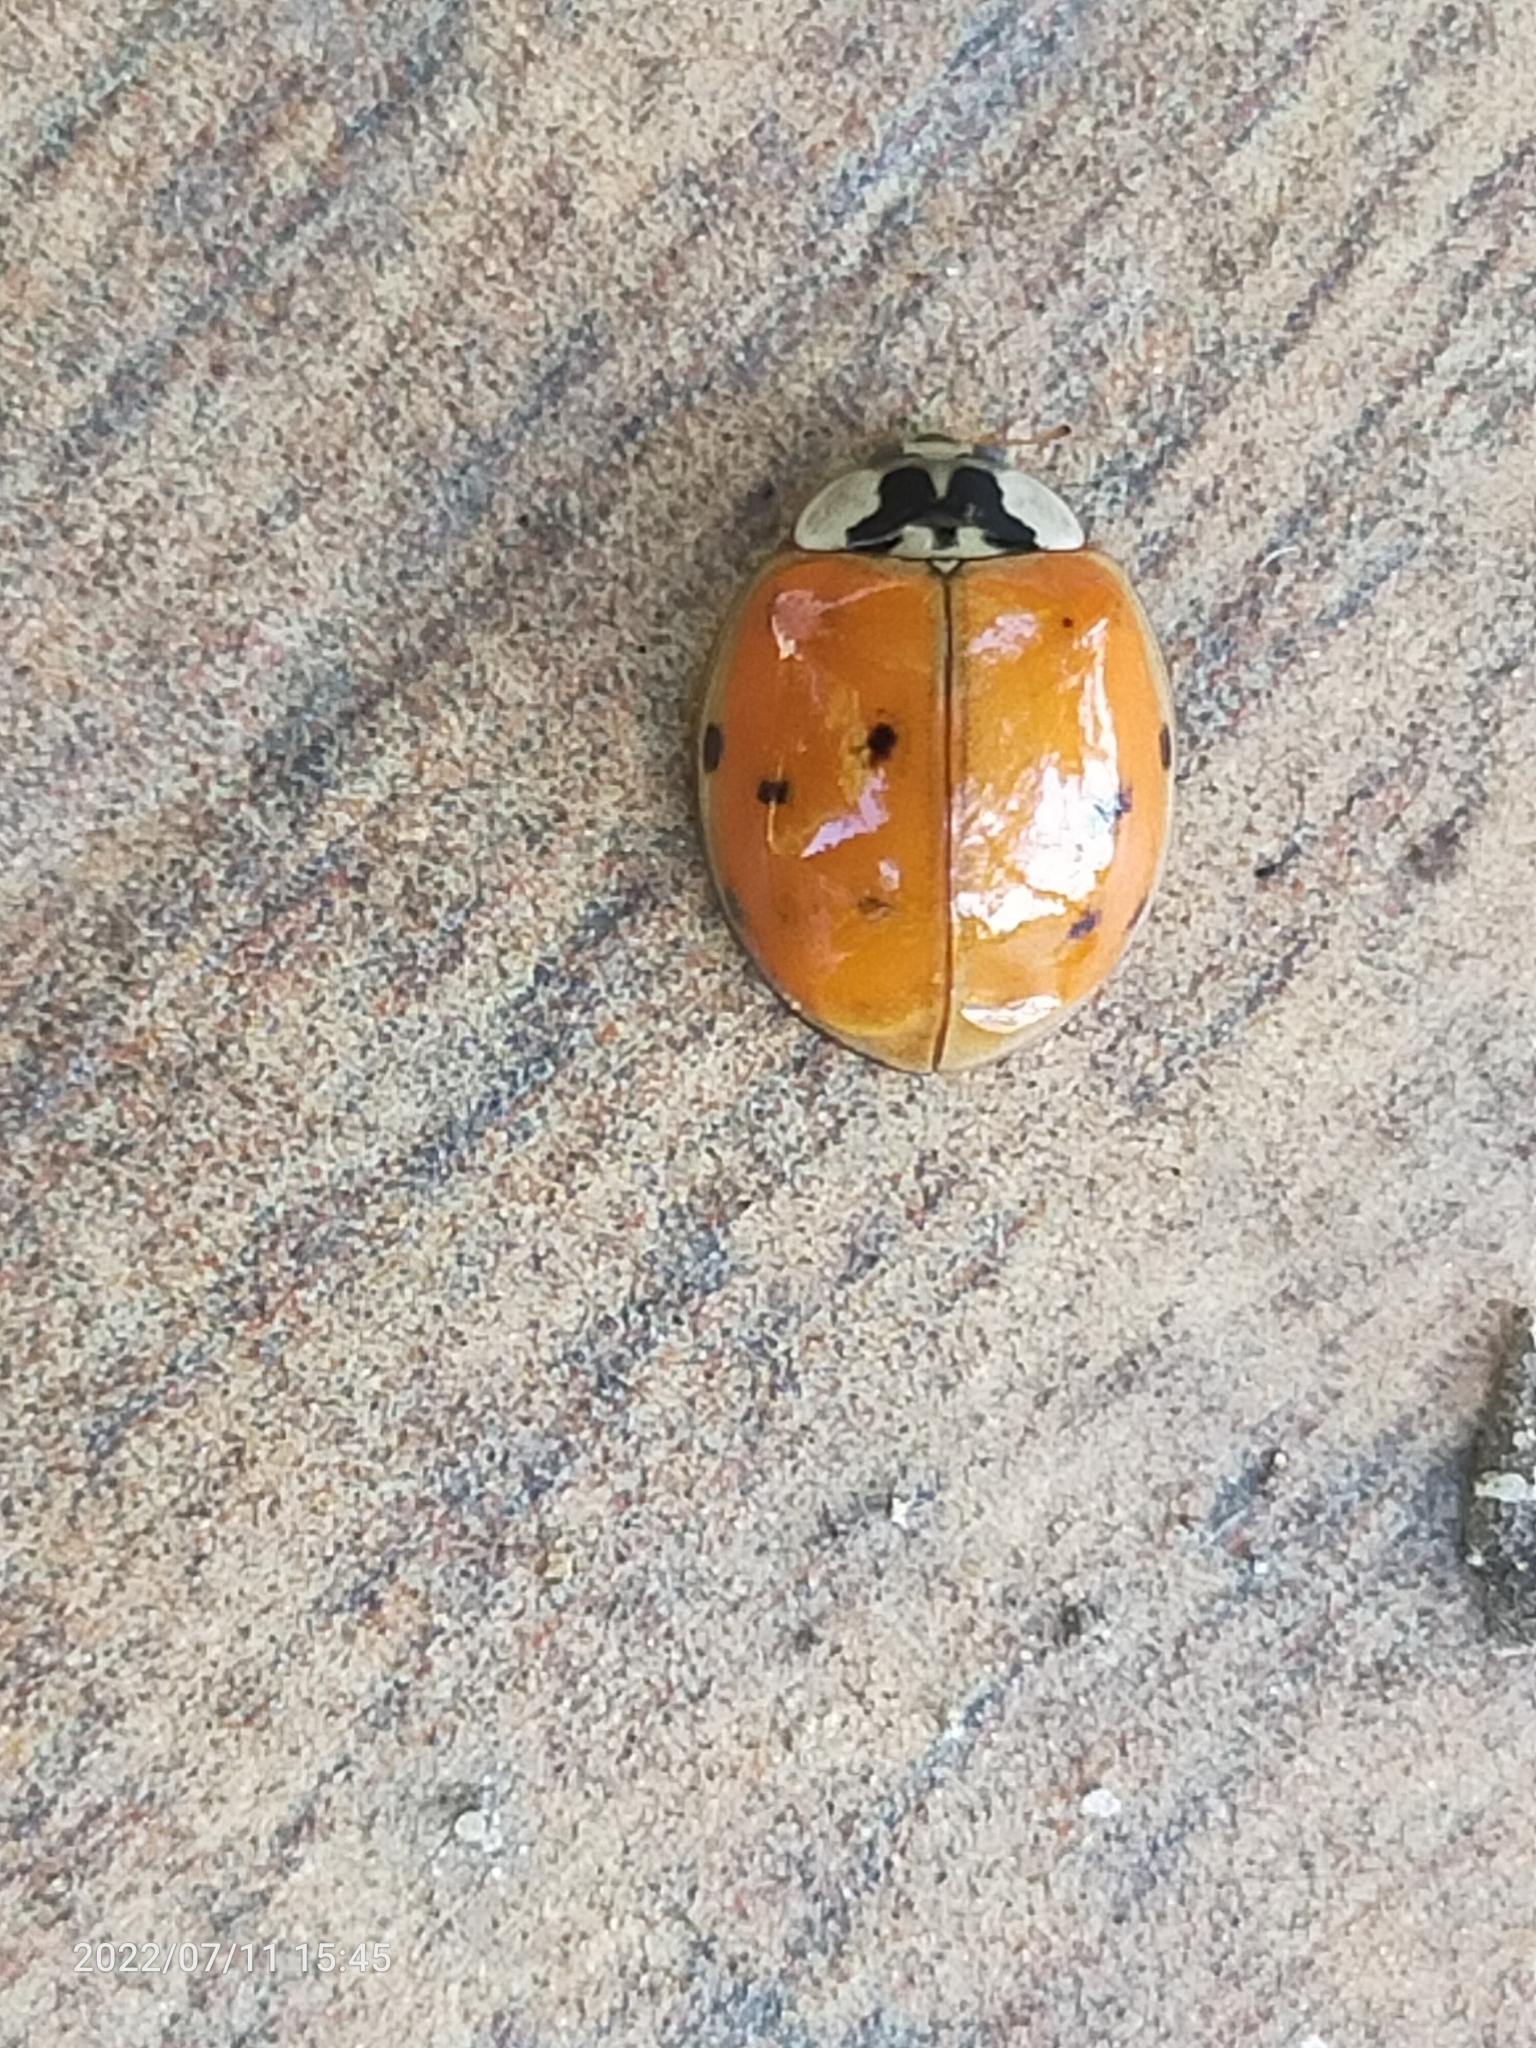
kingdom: Animalia
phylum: Arthropoda
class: Insecta
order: Coleoptera
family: Coccinellidae
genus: Harmonia
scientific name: Harmonia axyridis
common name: Harlequin ladybird
